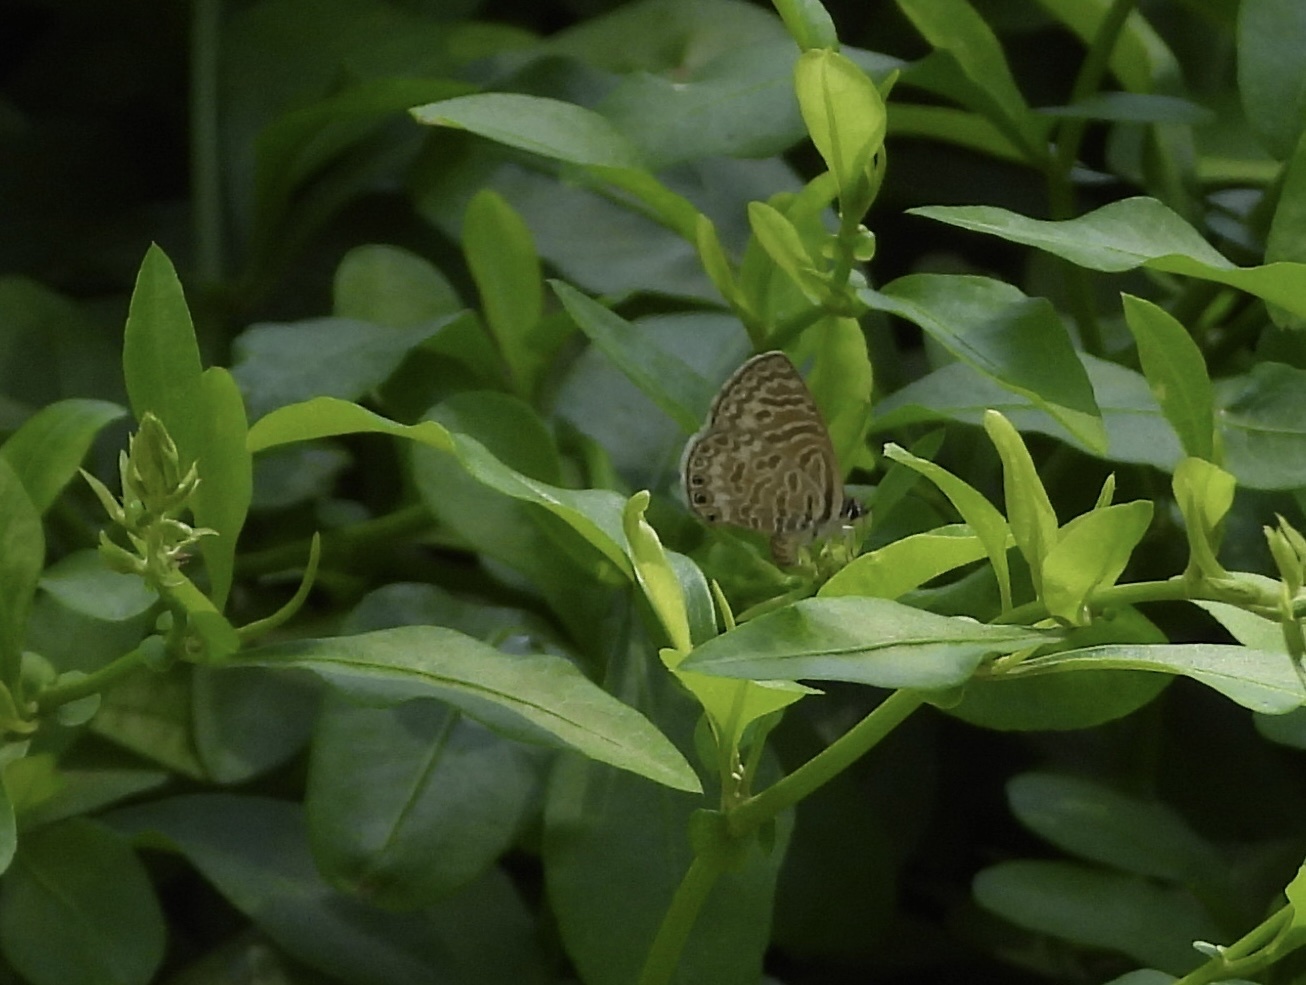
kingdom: Animalia
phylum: Arthropoda
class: Insecta
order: Lepidoptera
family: Lycaenidae
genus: Leptotes
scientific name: Leptotes trigemmatus
